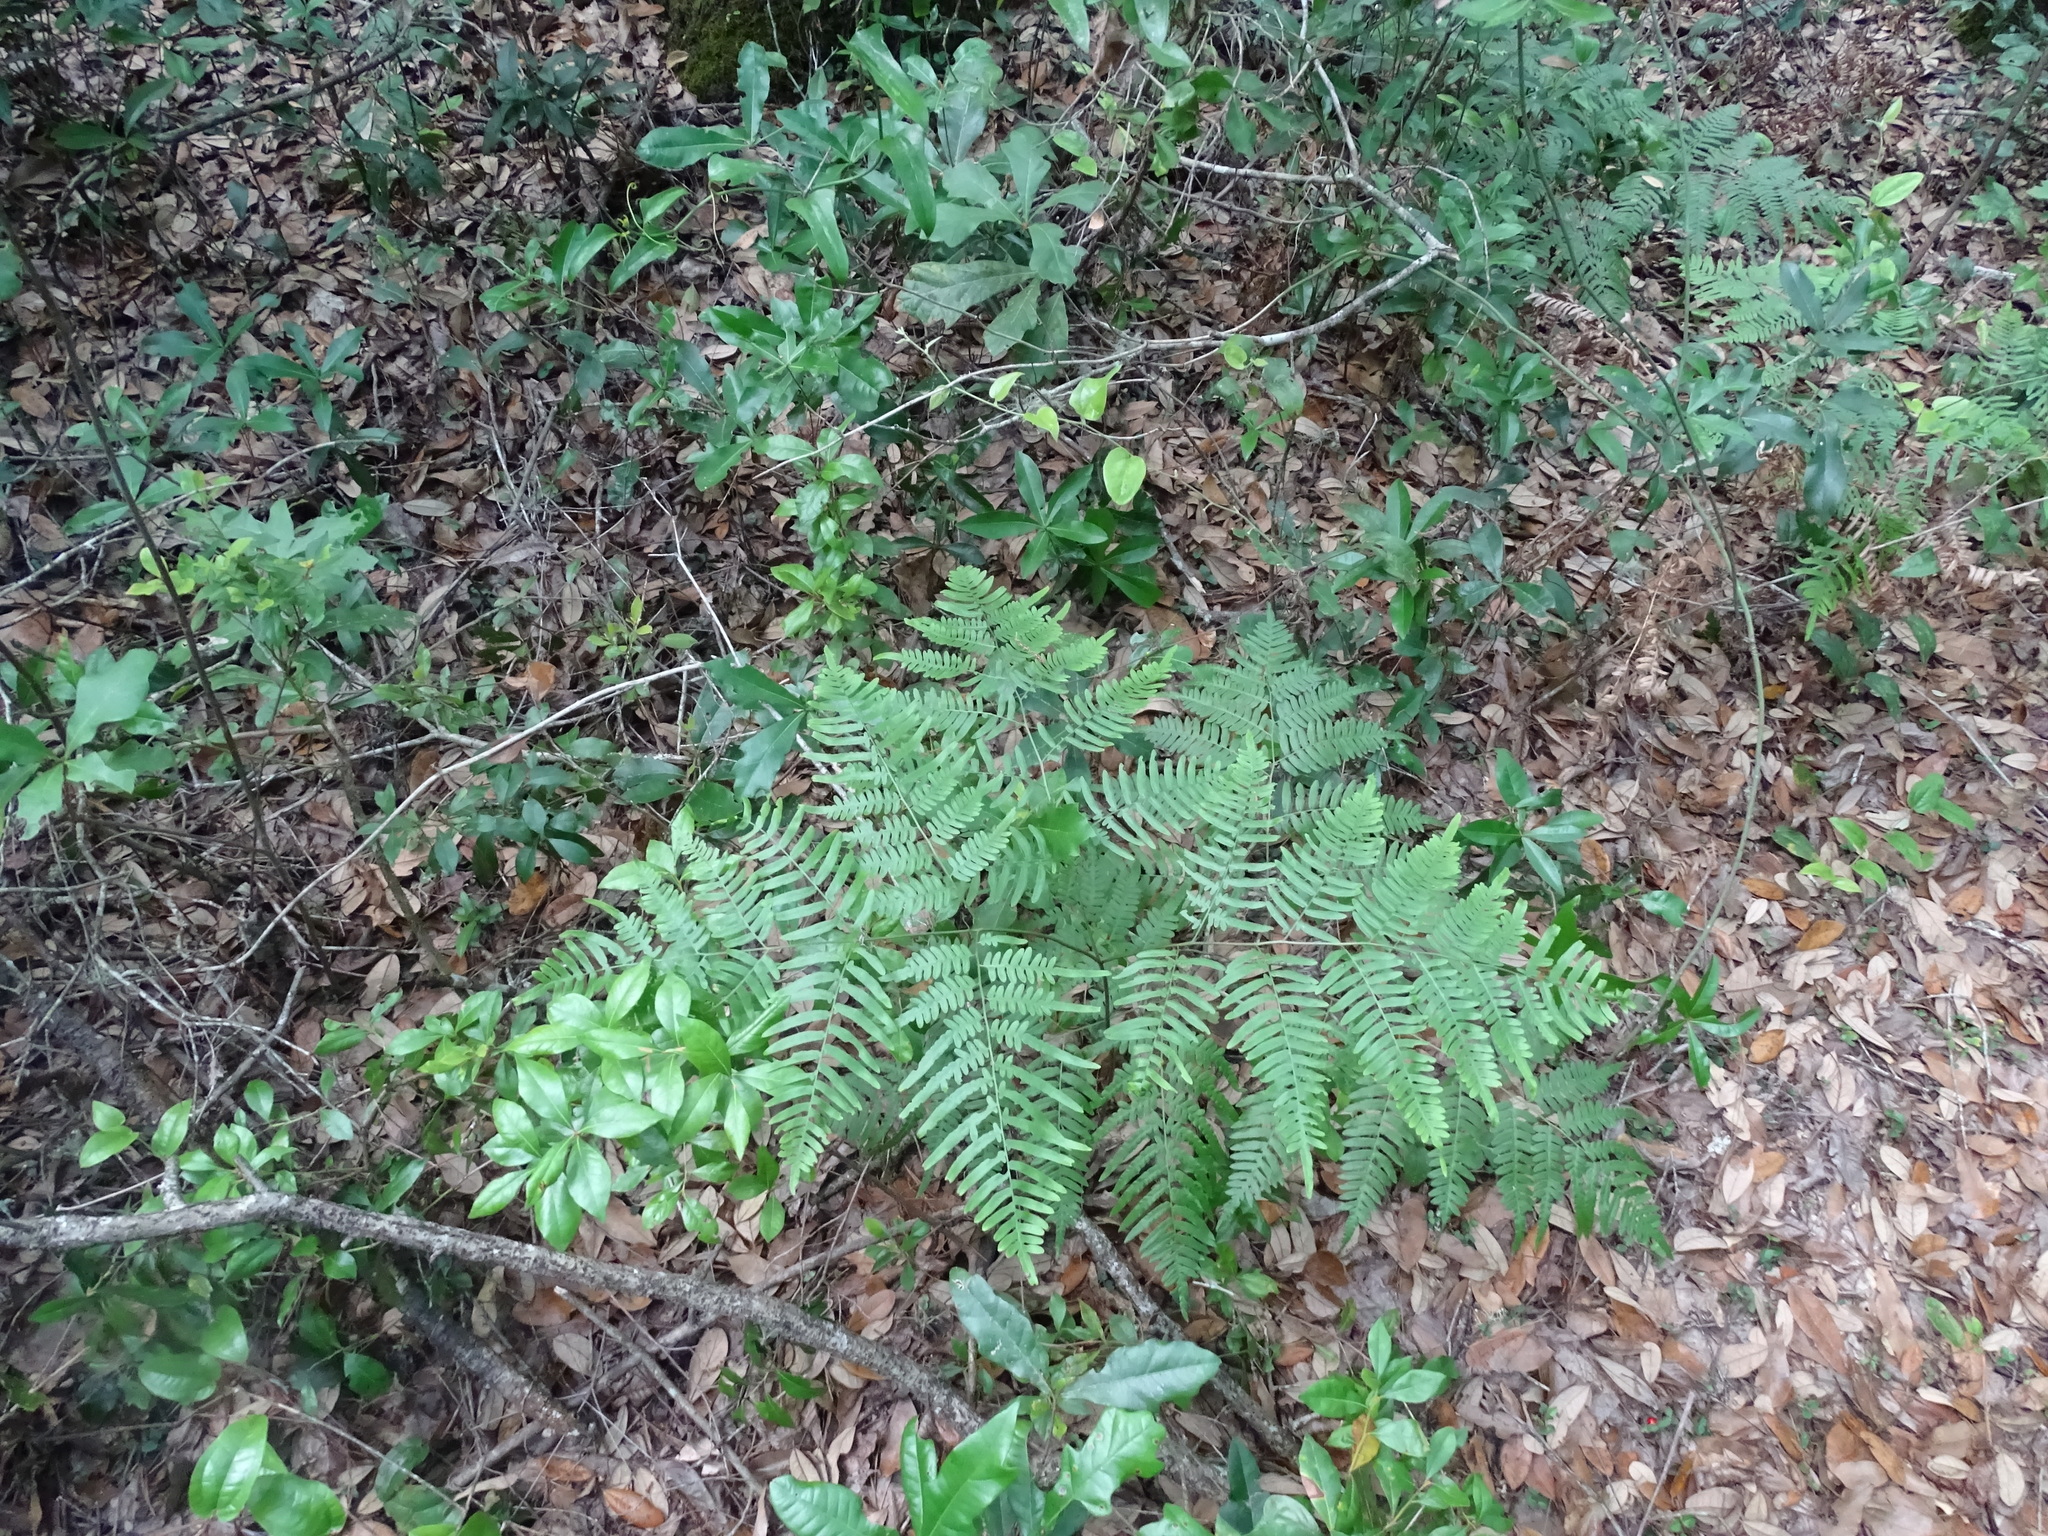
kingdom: Plantae
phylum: Tracheophyta
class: Polypodiopsida
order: Polypodiales
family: Dennstaedtiaceae
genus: Pteridium
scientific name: Pteridium aquilinum
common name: Bracken
